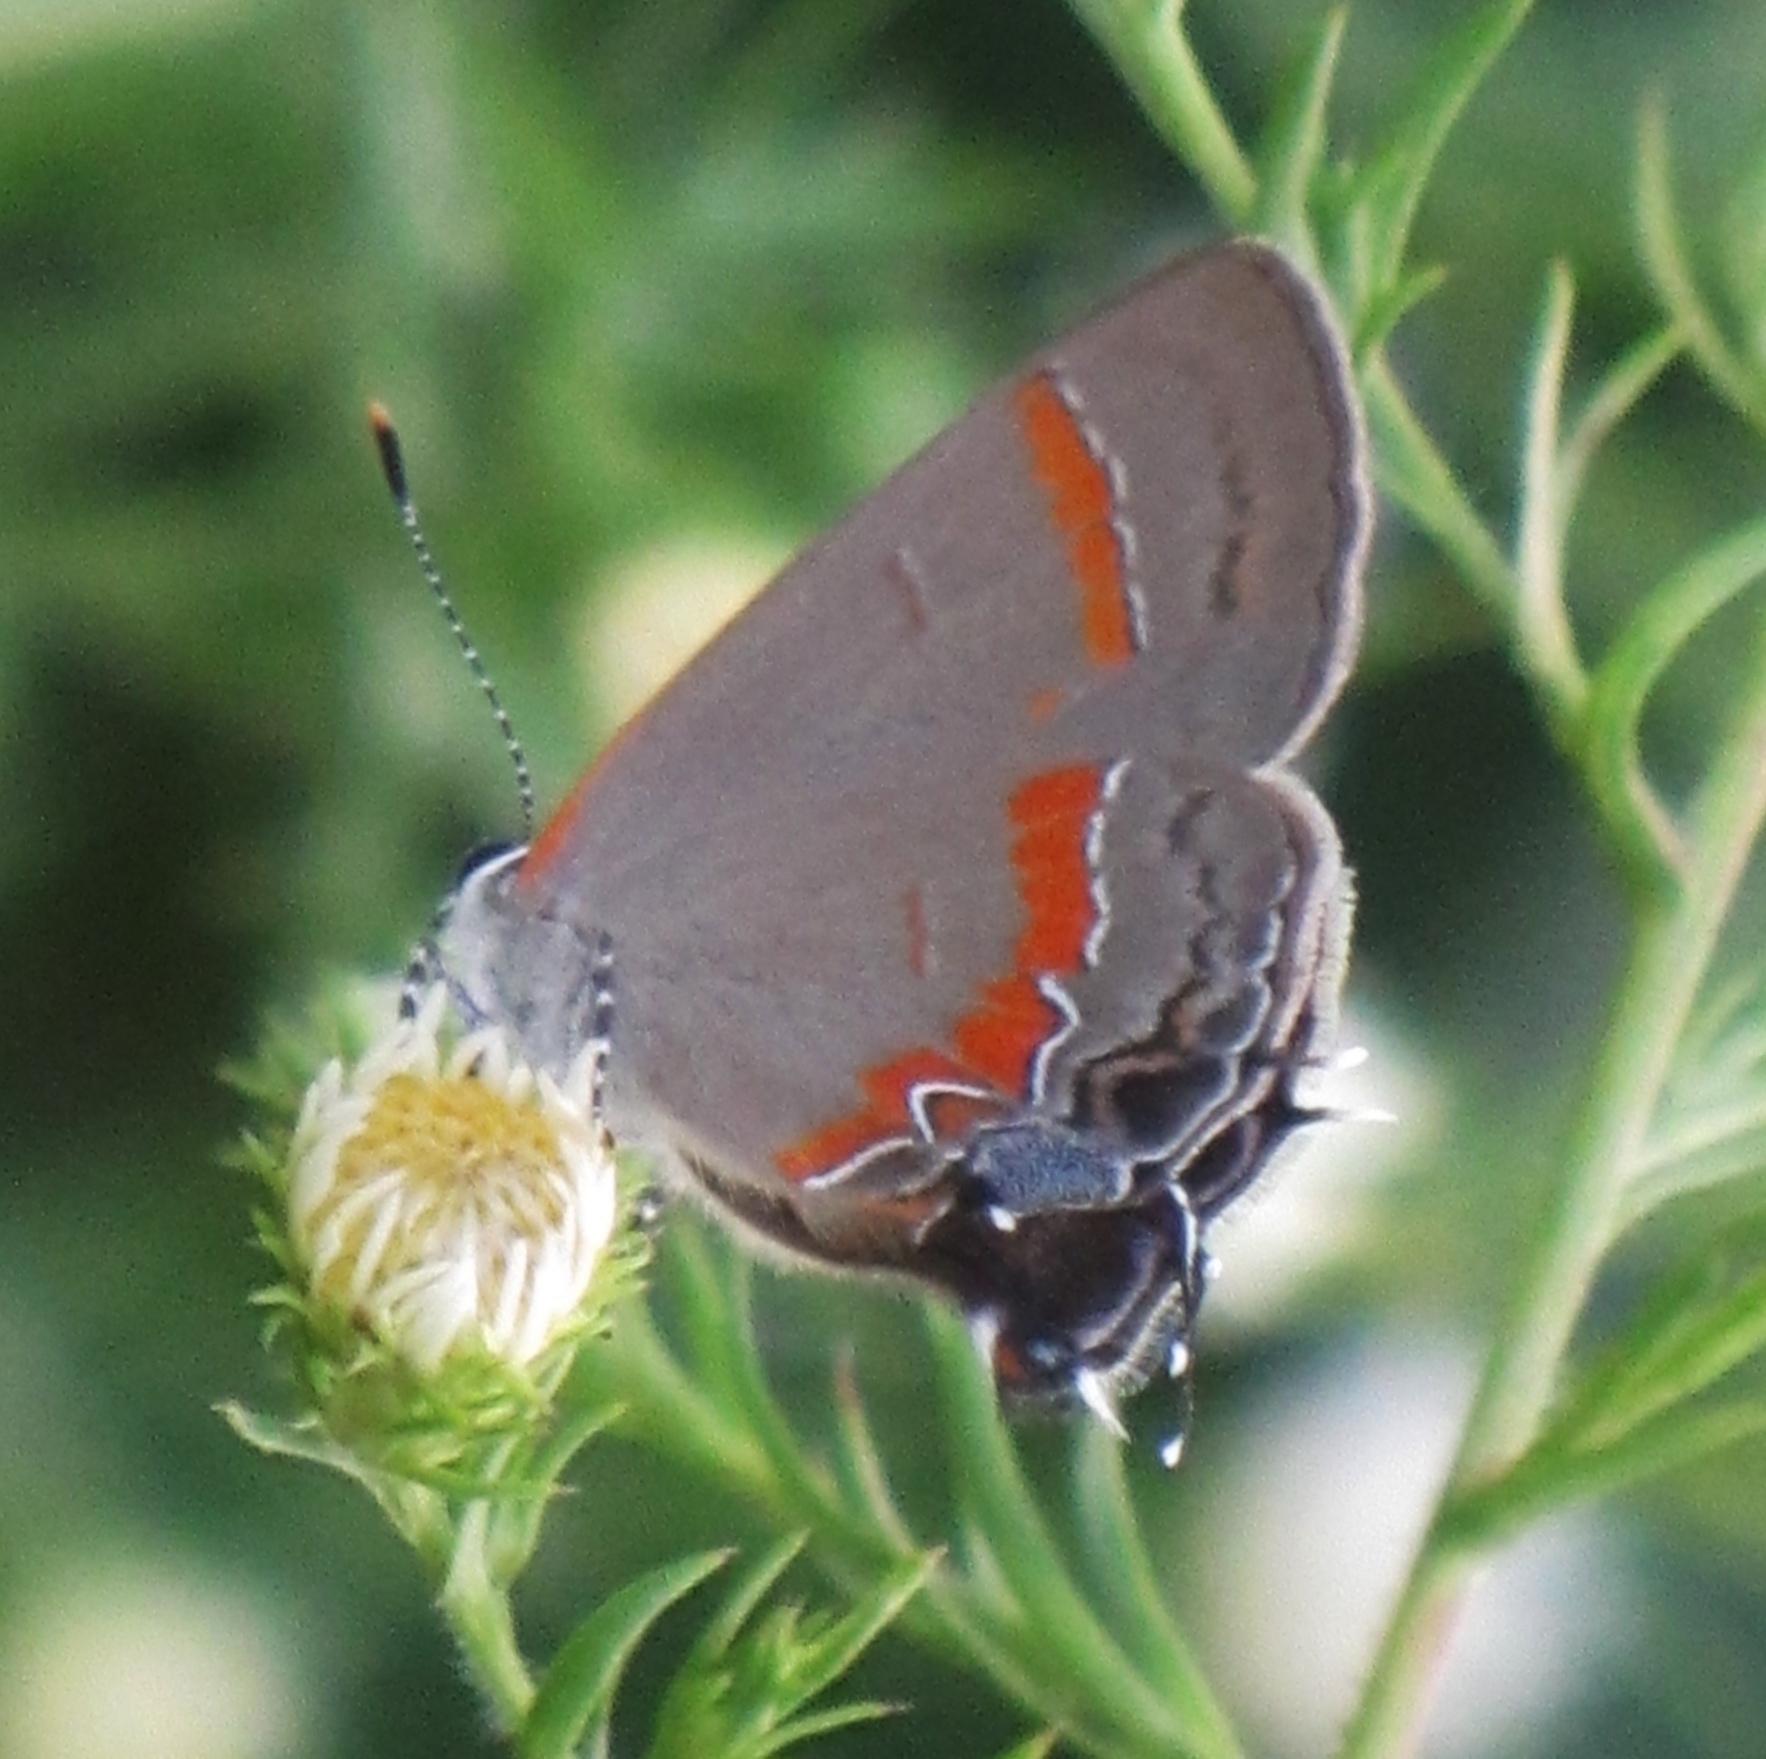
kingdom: Animalia
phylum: Arthropoda
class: Insecta
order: Lepidoptera
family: Lycaenidae
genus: Calycopis
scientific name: Calycopis cecrops
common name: Red-banded hairstreak
